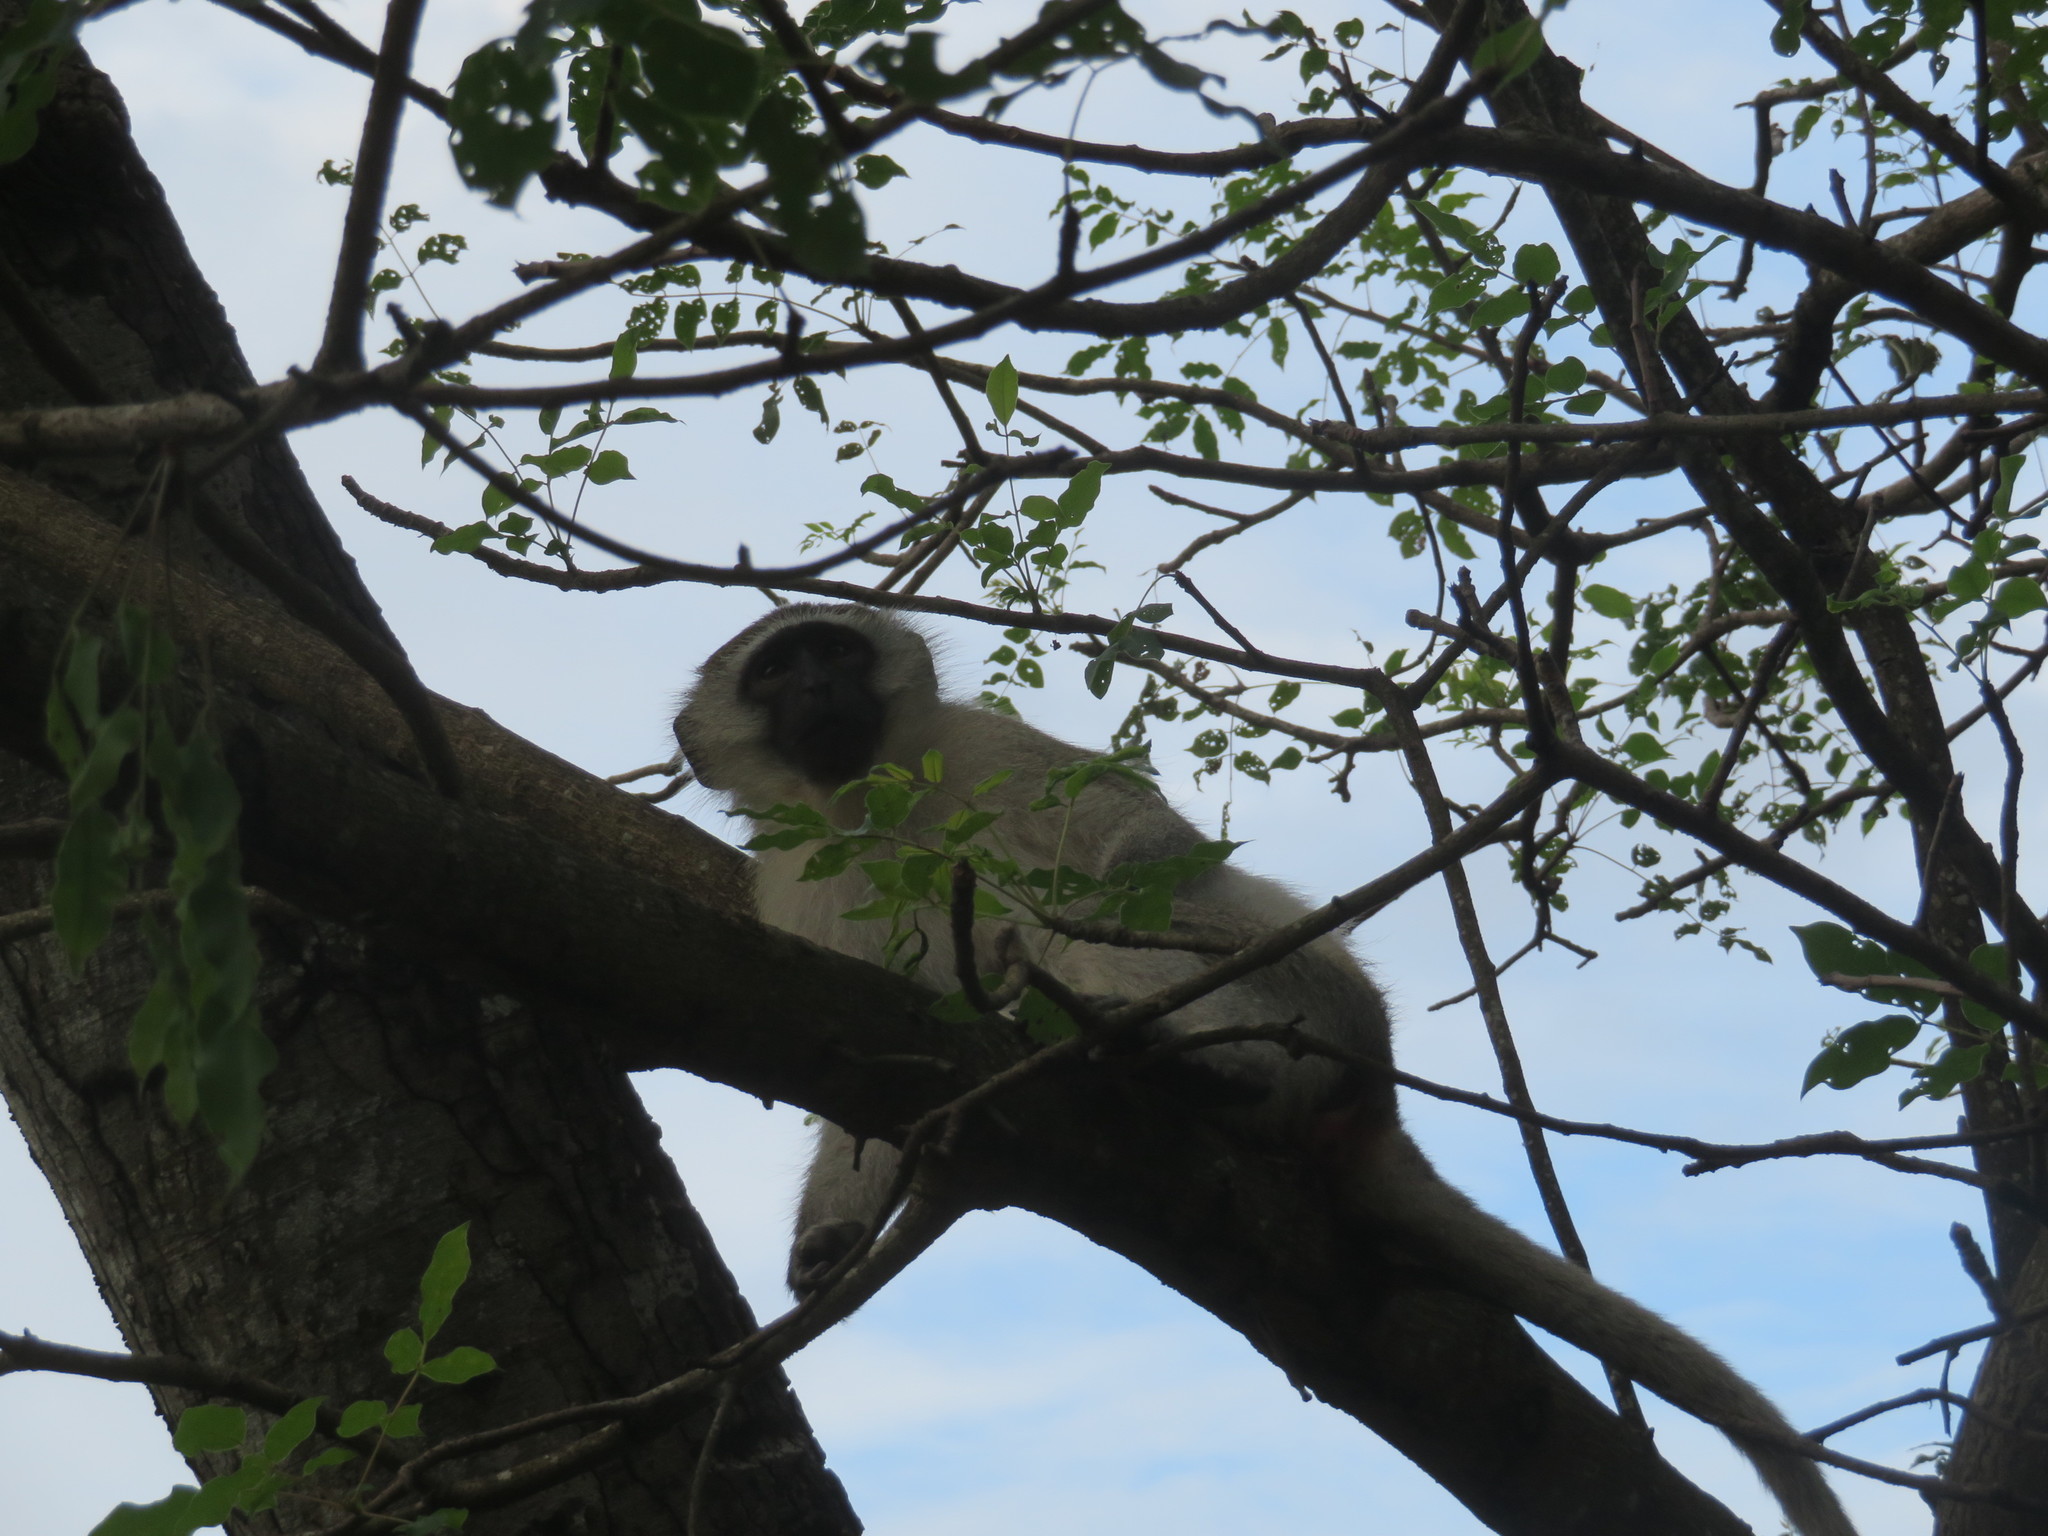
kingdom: Animalia
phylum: Chordata
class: Mammalia
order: Primates
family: Cercopithecidae
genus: Chlorocebus
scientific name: Chlorocebus pygerythrus
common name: Vervet monkey
